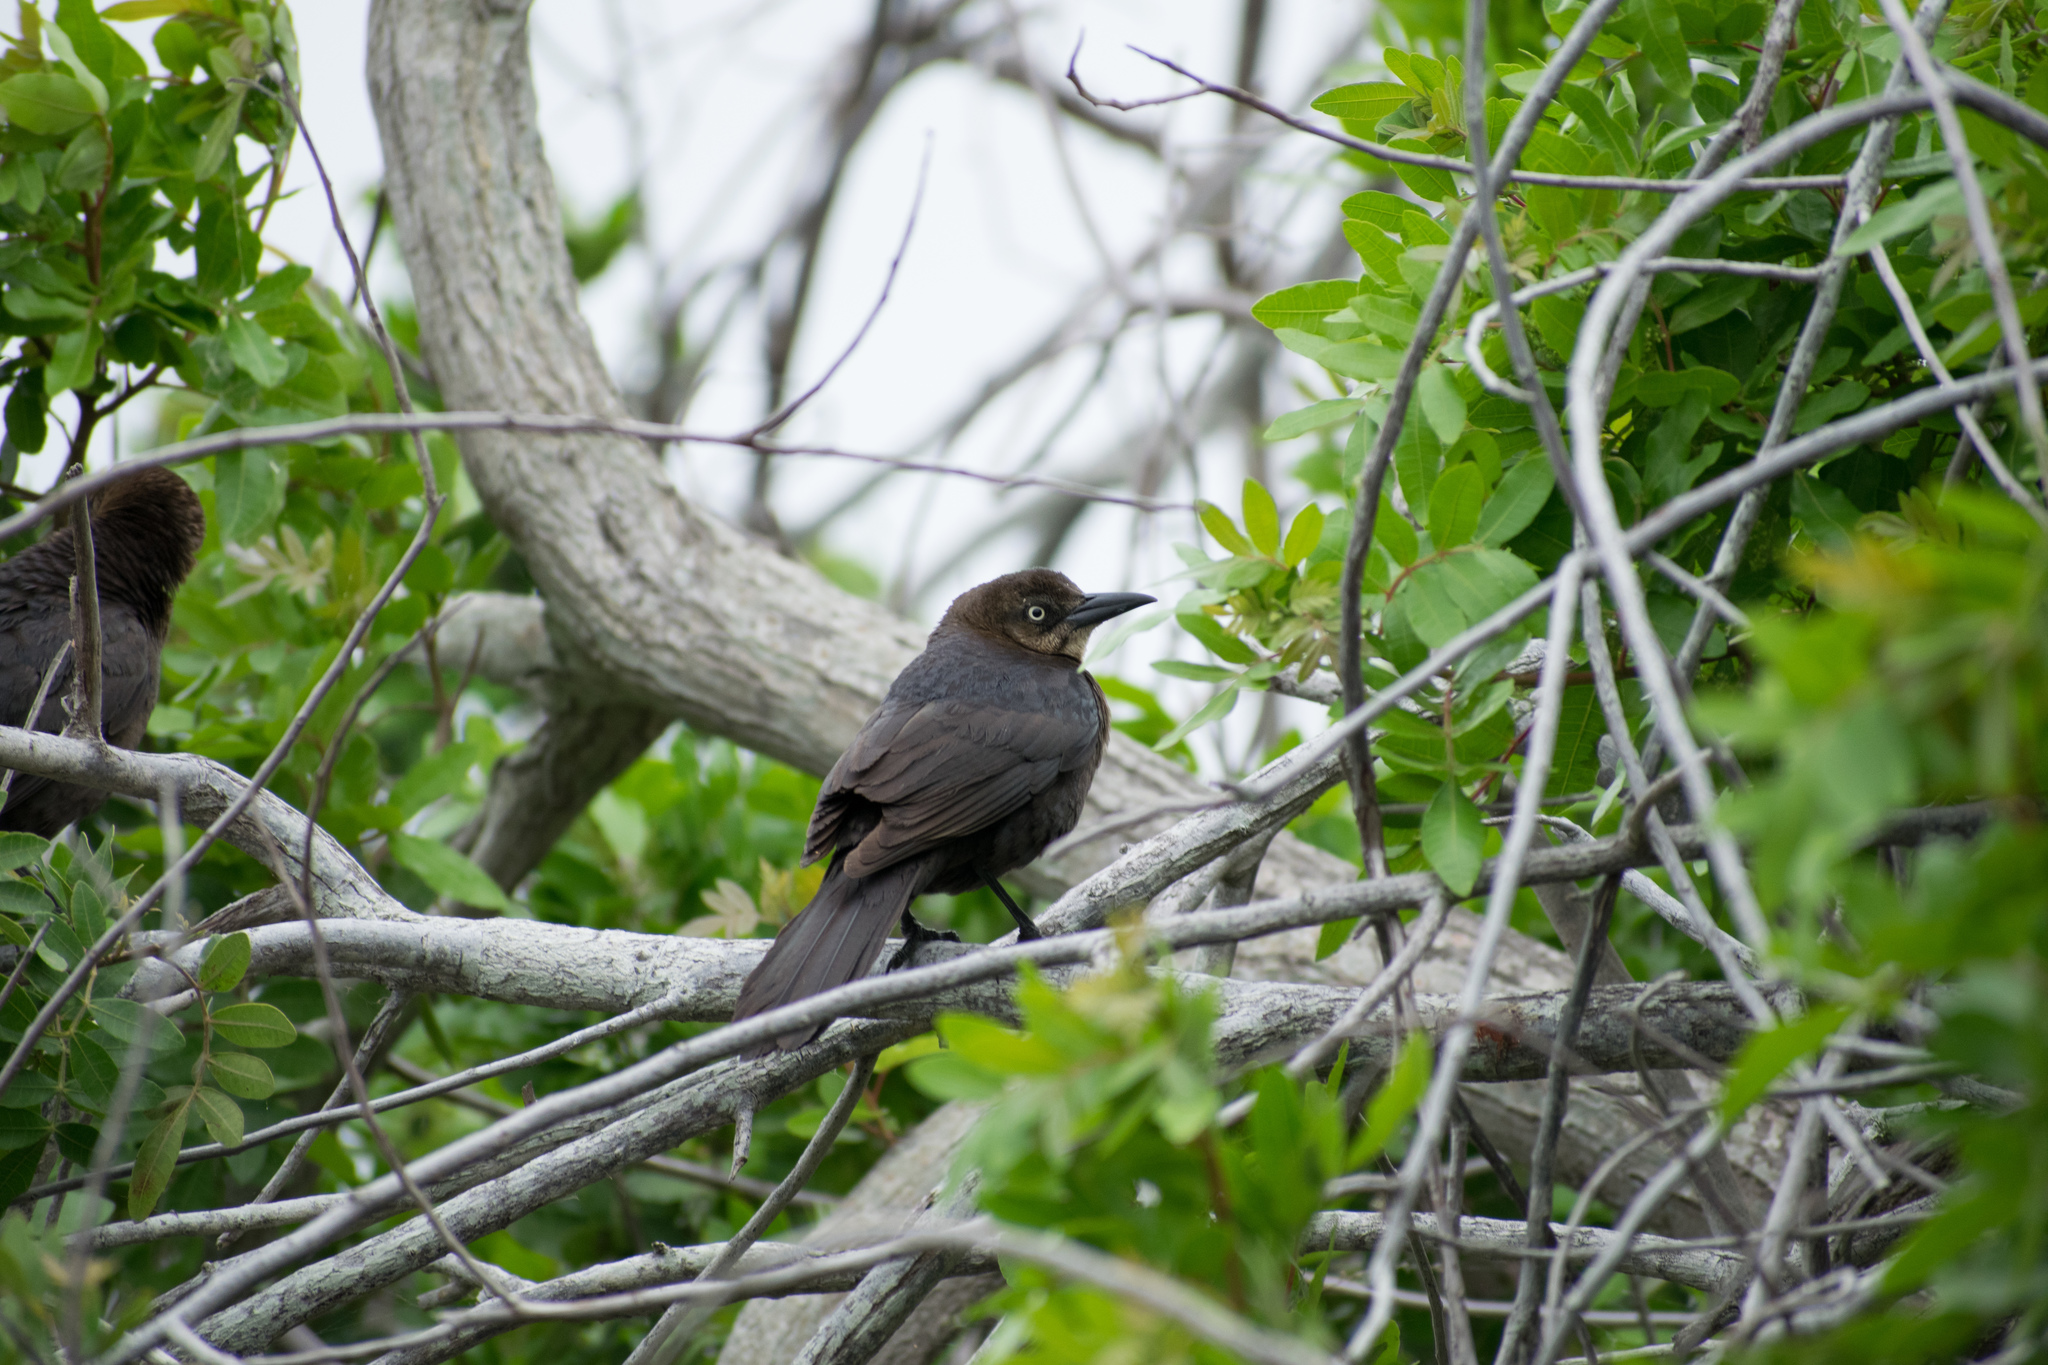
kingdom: Animalia
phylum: Chordata
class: Aves
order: Passeriformes
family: Icteridae
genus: Quiscalus
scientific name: Quiscalus mexicanus
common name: Great-tailed grackle
